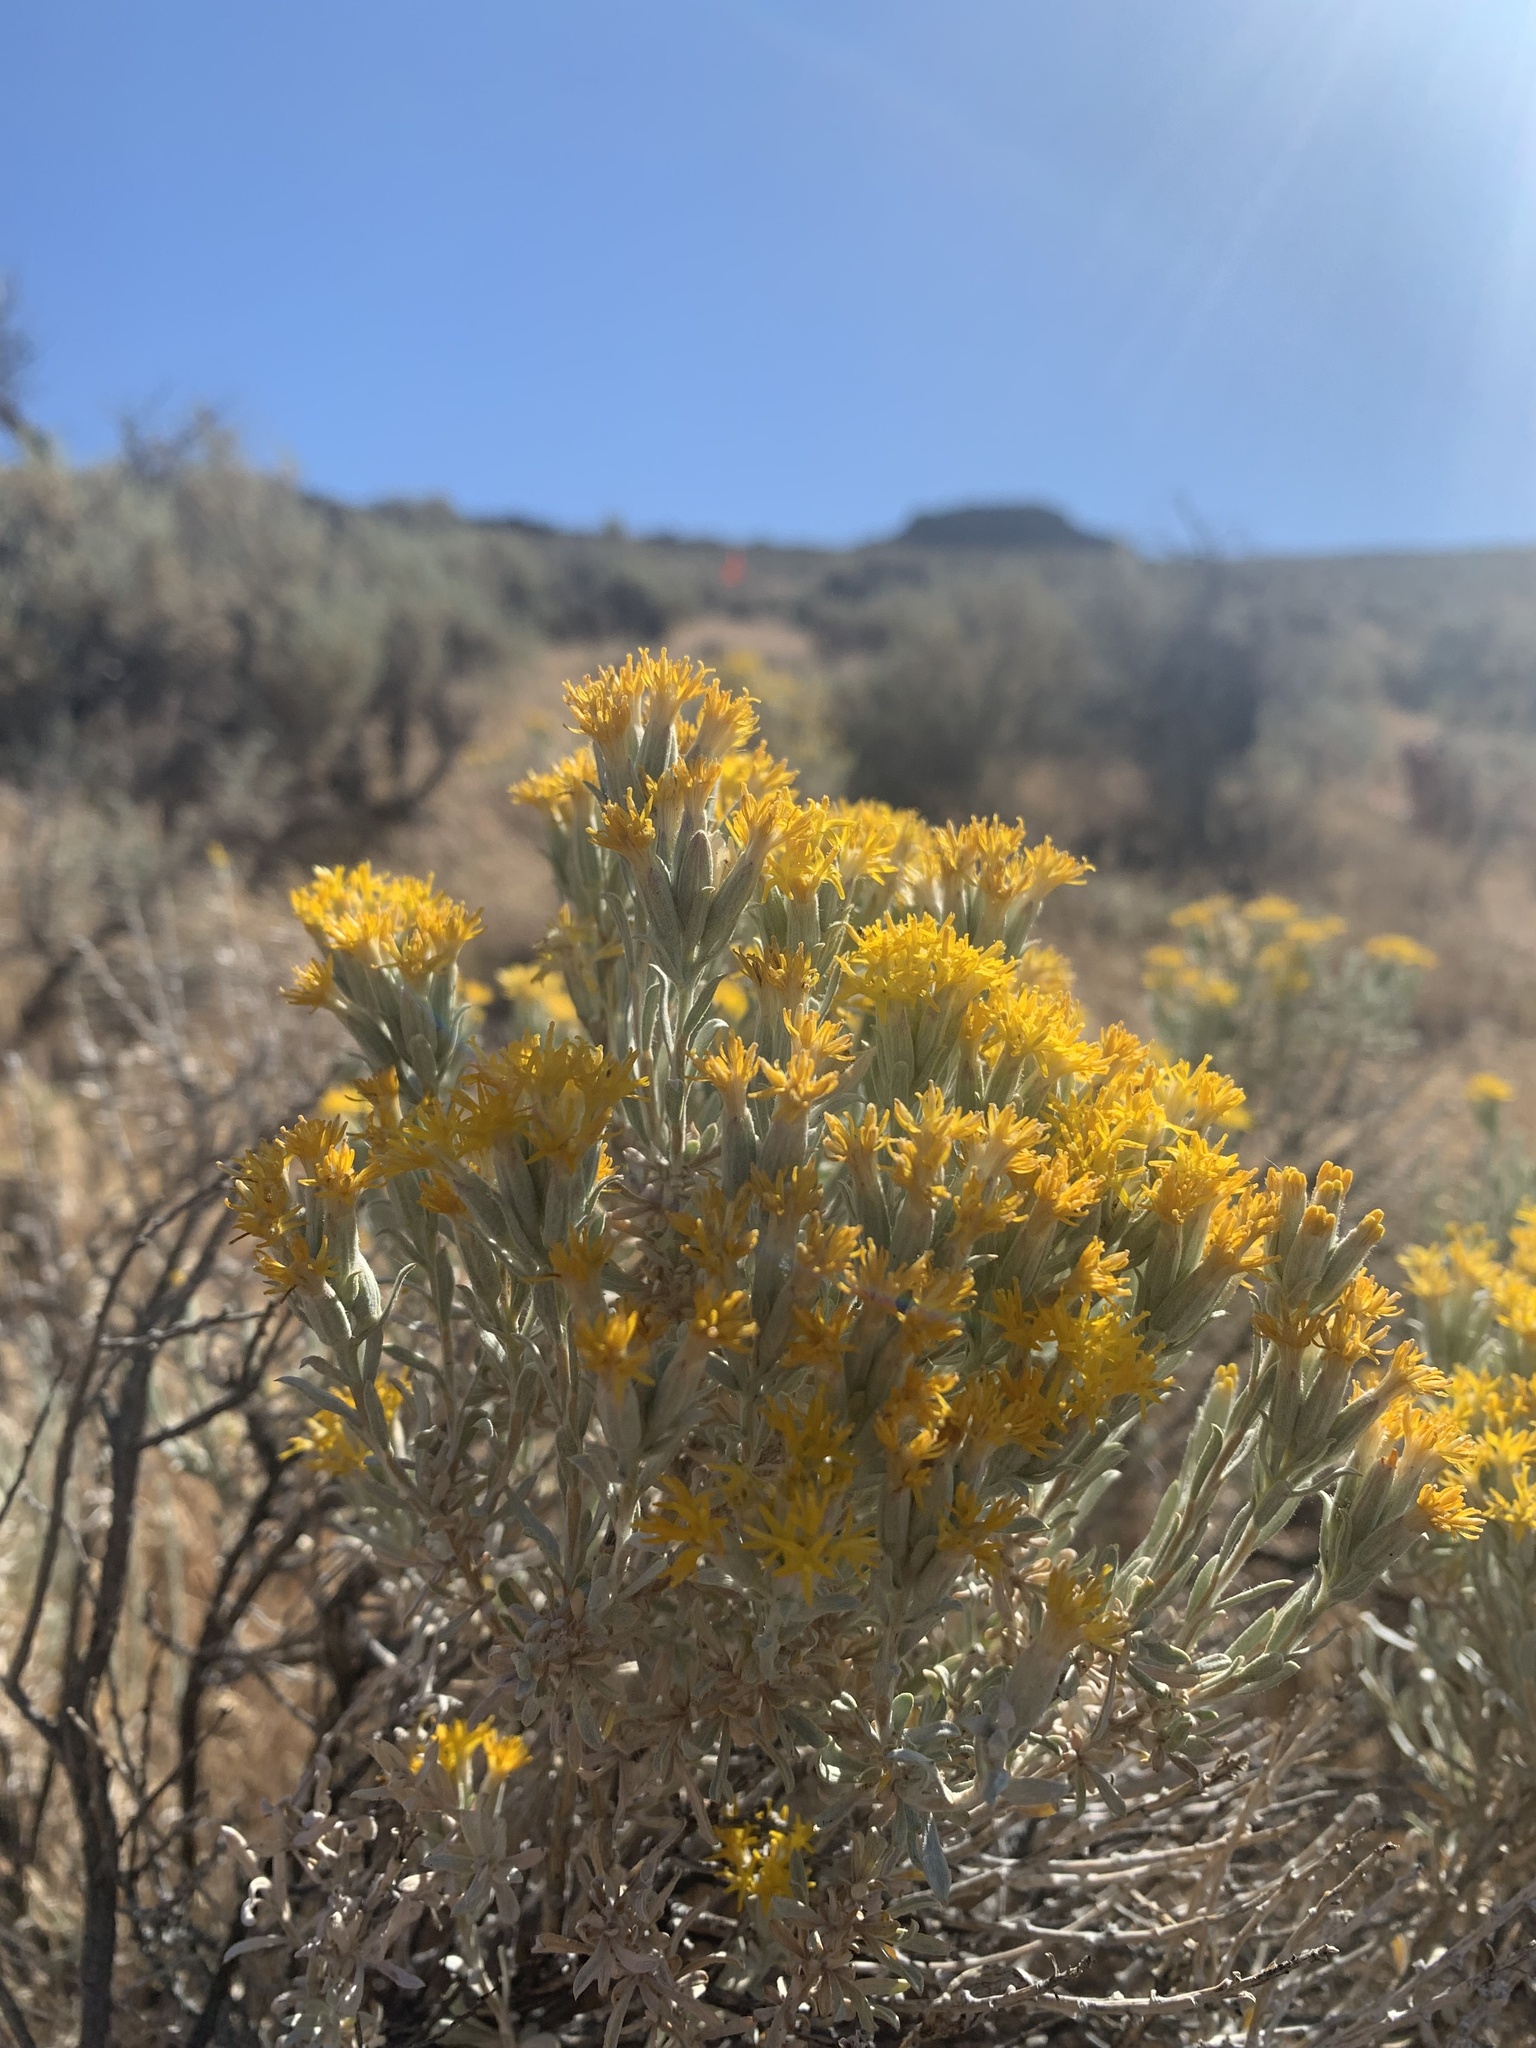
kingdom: Plantae
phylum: Tracheophyta
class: Magnoliopsida
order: Asterales
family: Asteraceae
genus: Tetradymia
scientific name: Tetradymia canescens
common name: Spineless horsebrush
